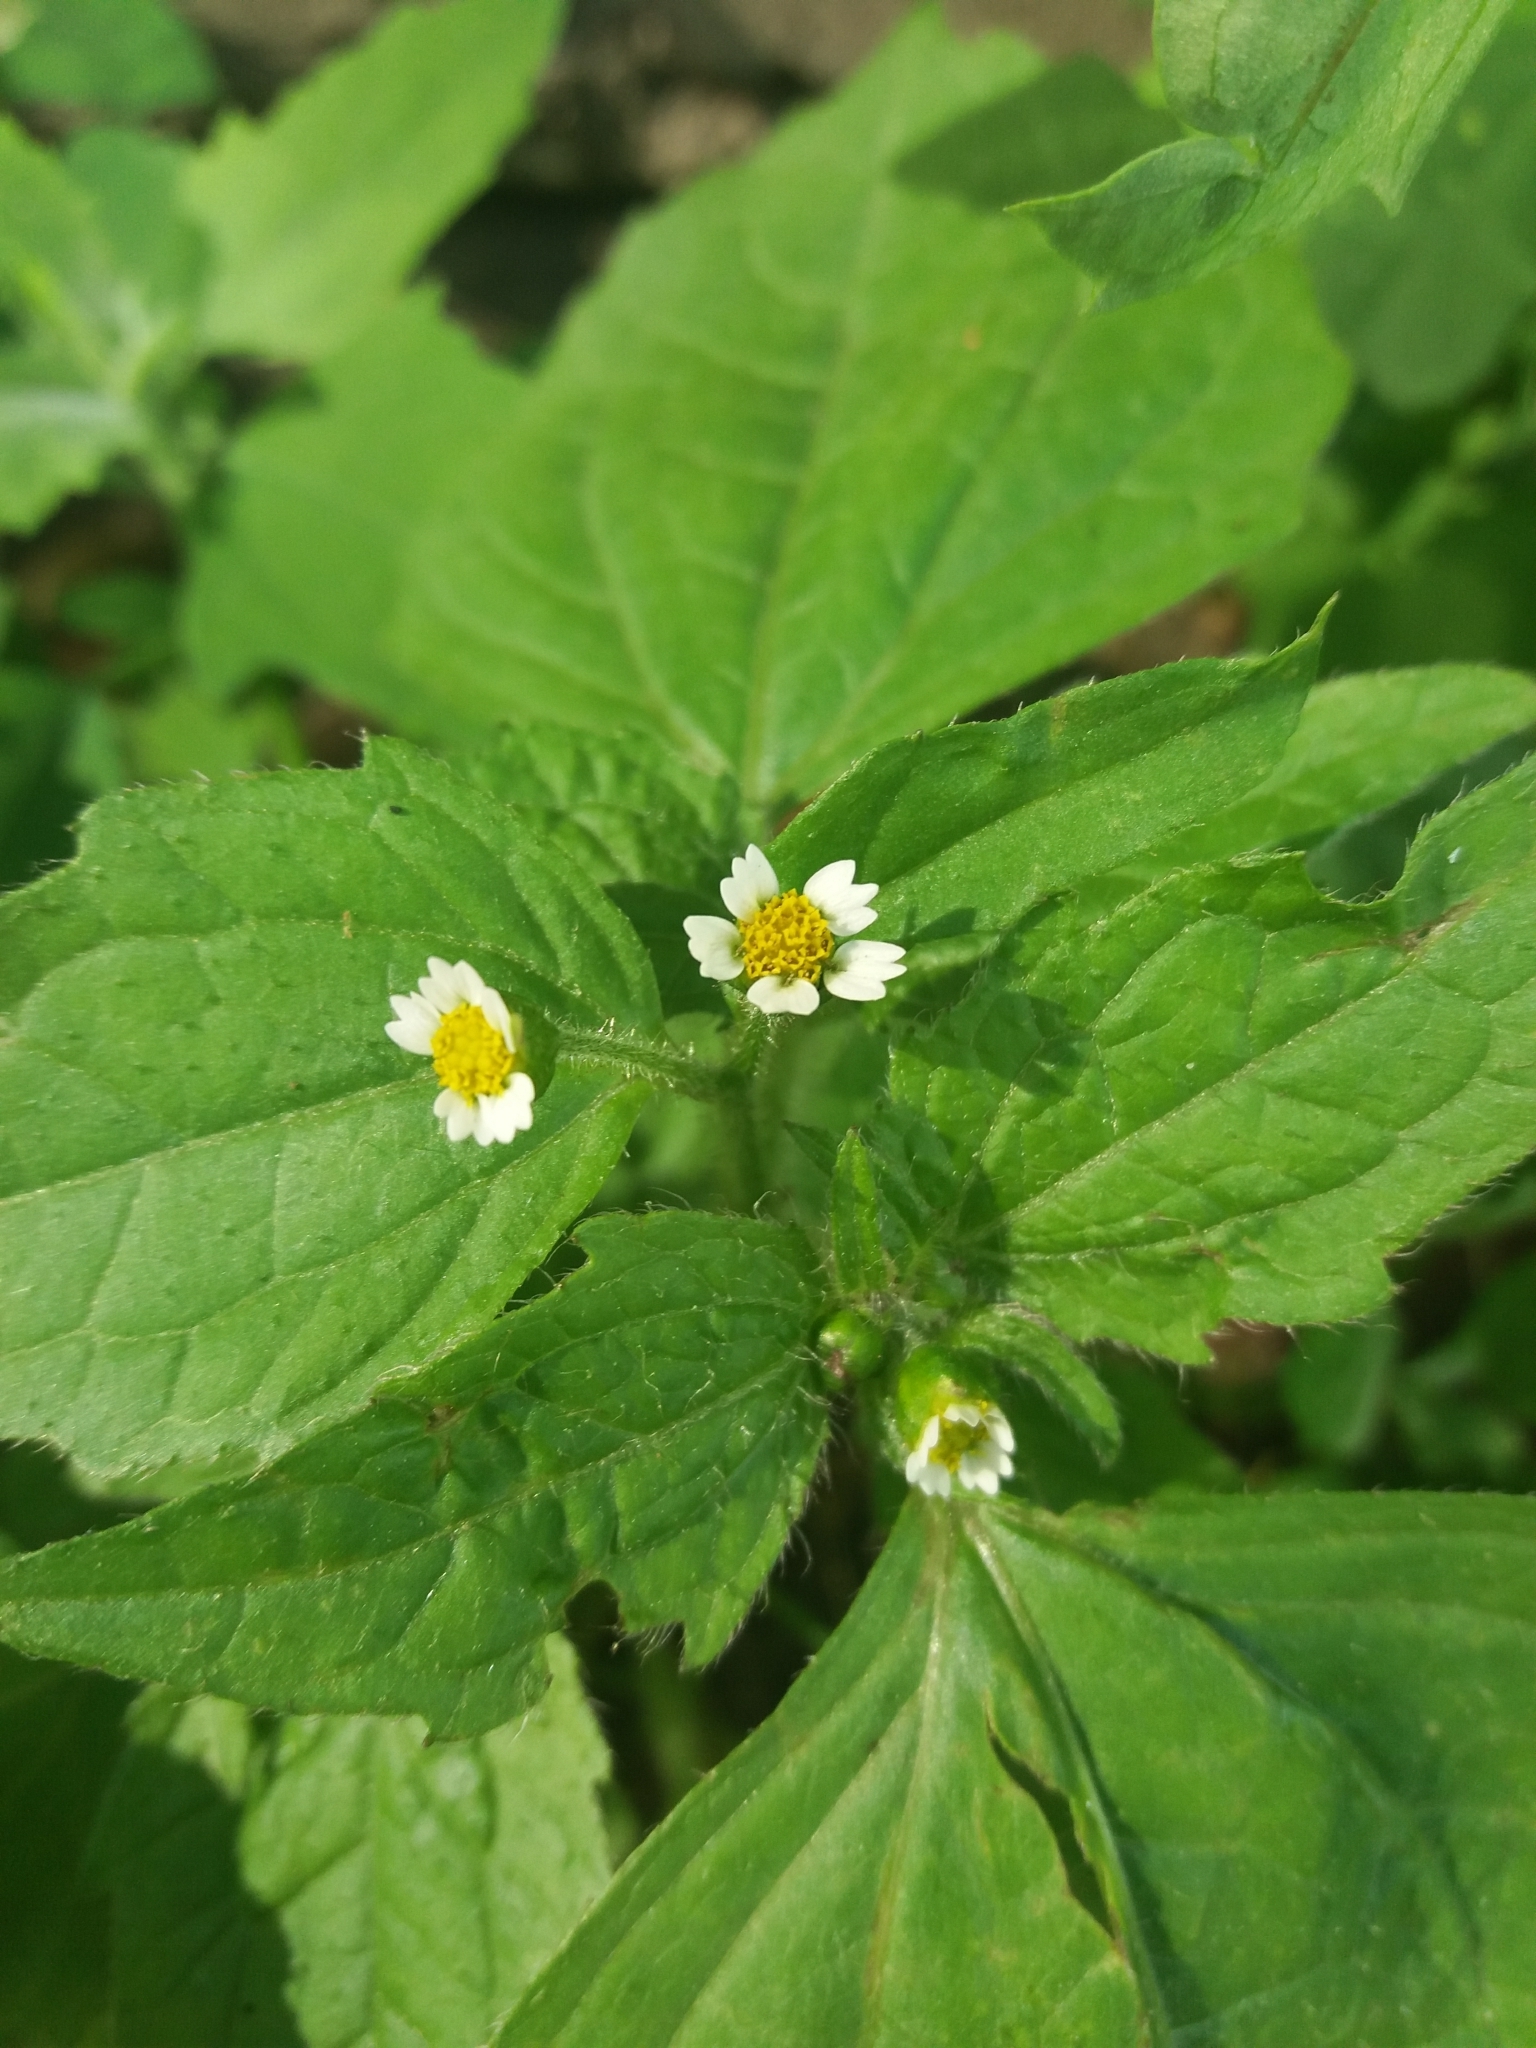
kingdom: Plantae
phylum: Tracheophyta
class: Magnoliopsida
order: Asterales
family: Asteraceae
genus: Galinsoga
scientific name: Galinsoga quadriradiata
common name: Shaggy soldier
